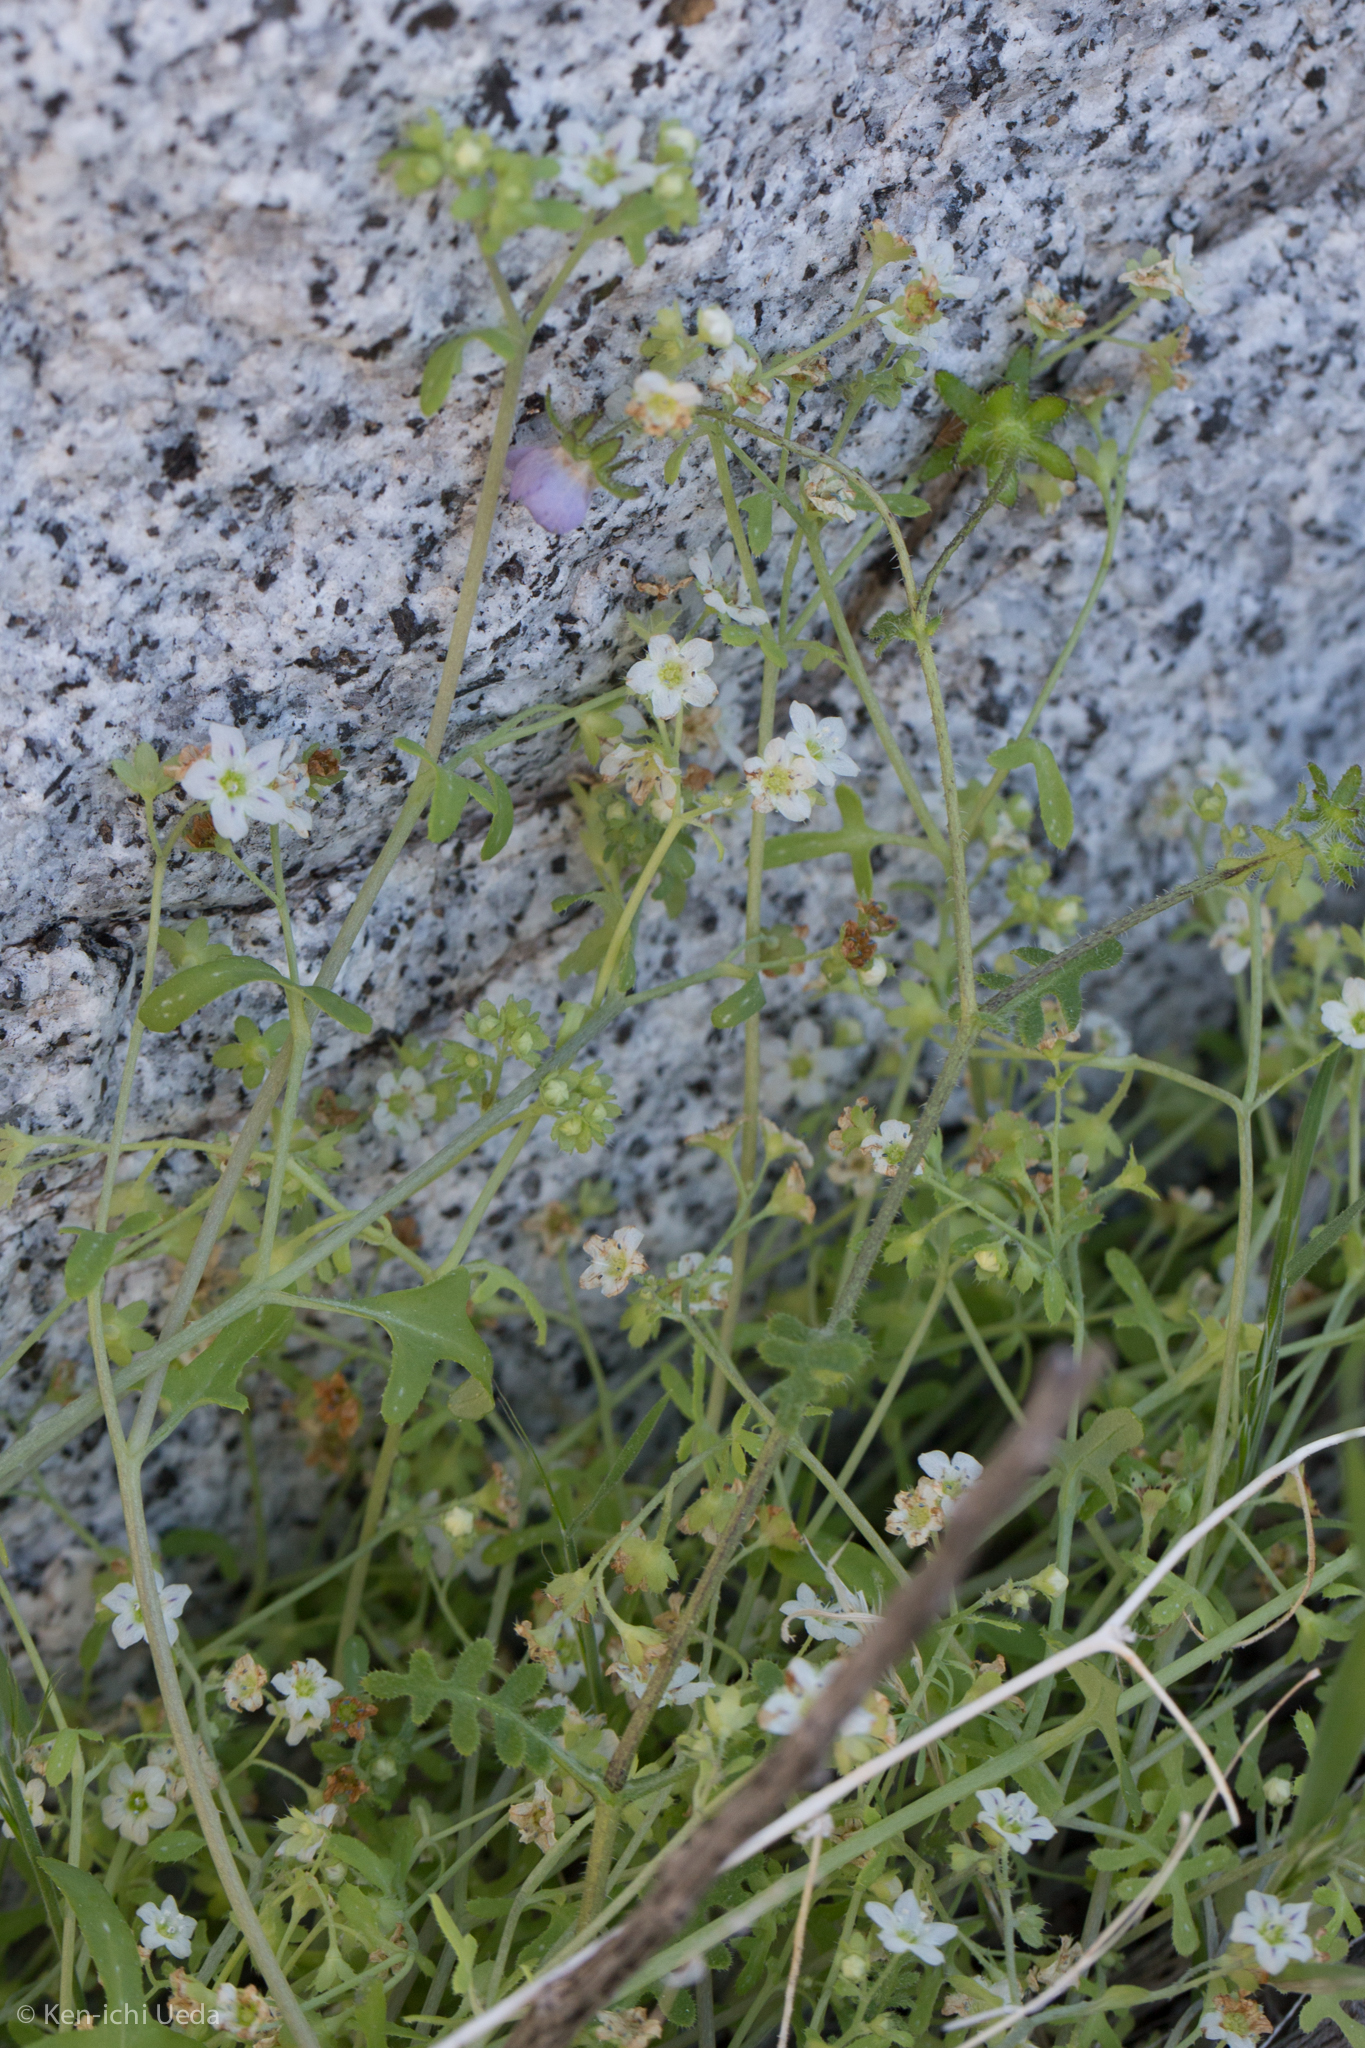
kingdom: Plantae
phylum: Tracheophyta
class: Magnoliopsida
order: Boraginales
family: Hydrophyllaceae
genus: Pholistoma
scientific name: Pholistoma membranaceum
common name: White fiesta-flower
